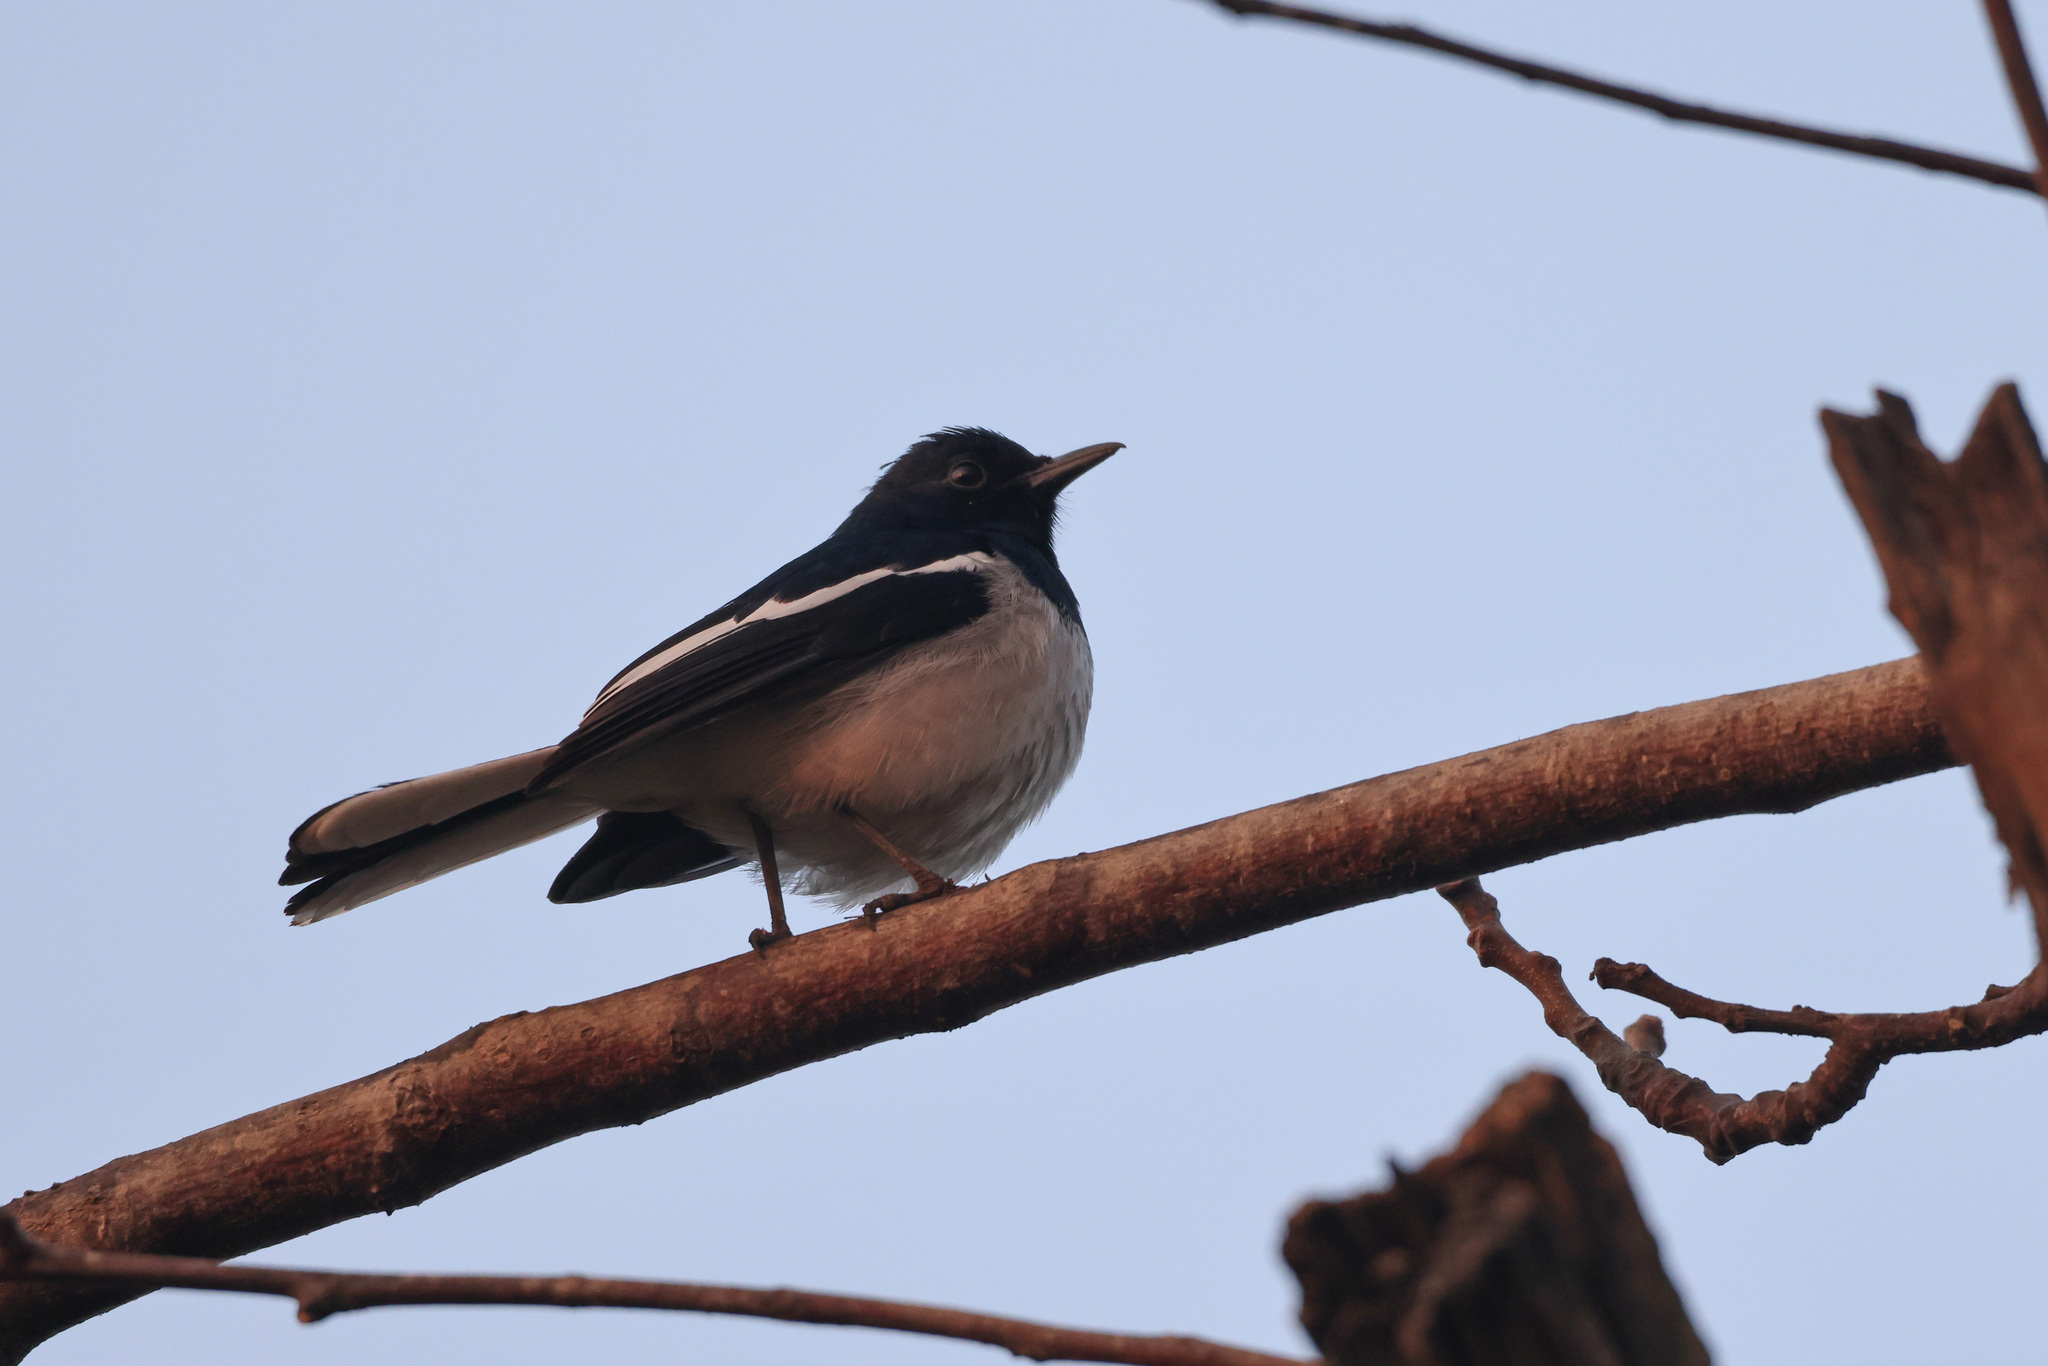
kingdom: Animalia
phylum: Chordata
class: Aves
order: Passeriformes
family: Muscicapidae
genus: Copsychus
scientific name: Copsychus saularis
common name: Oriental magpie-robin
